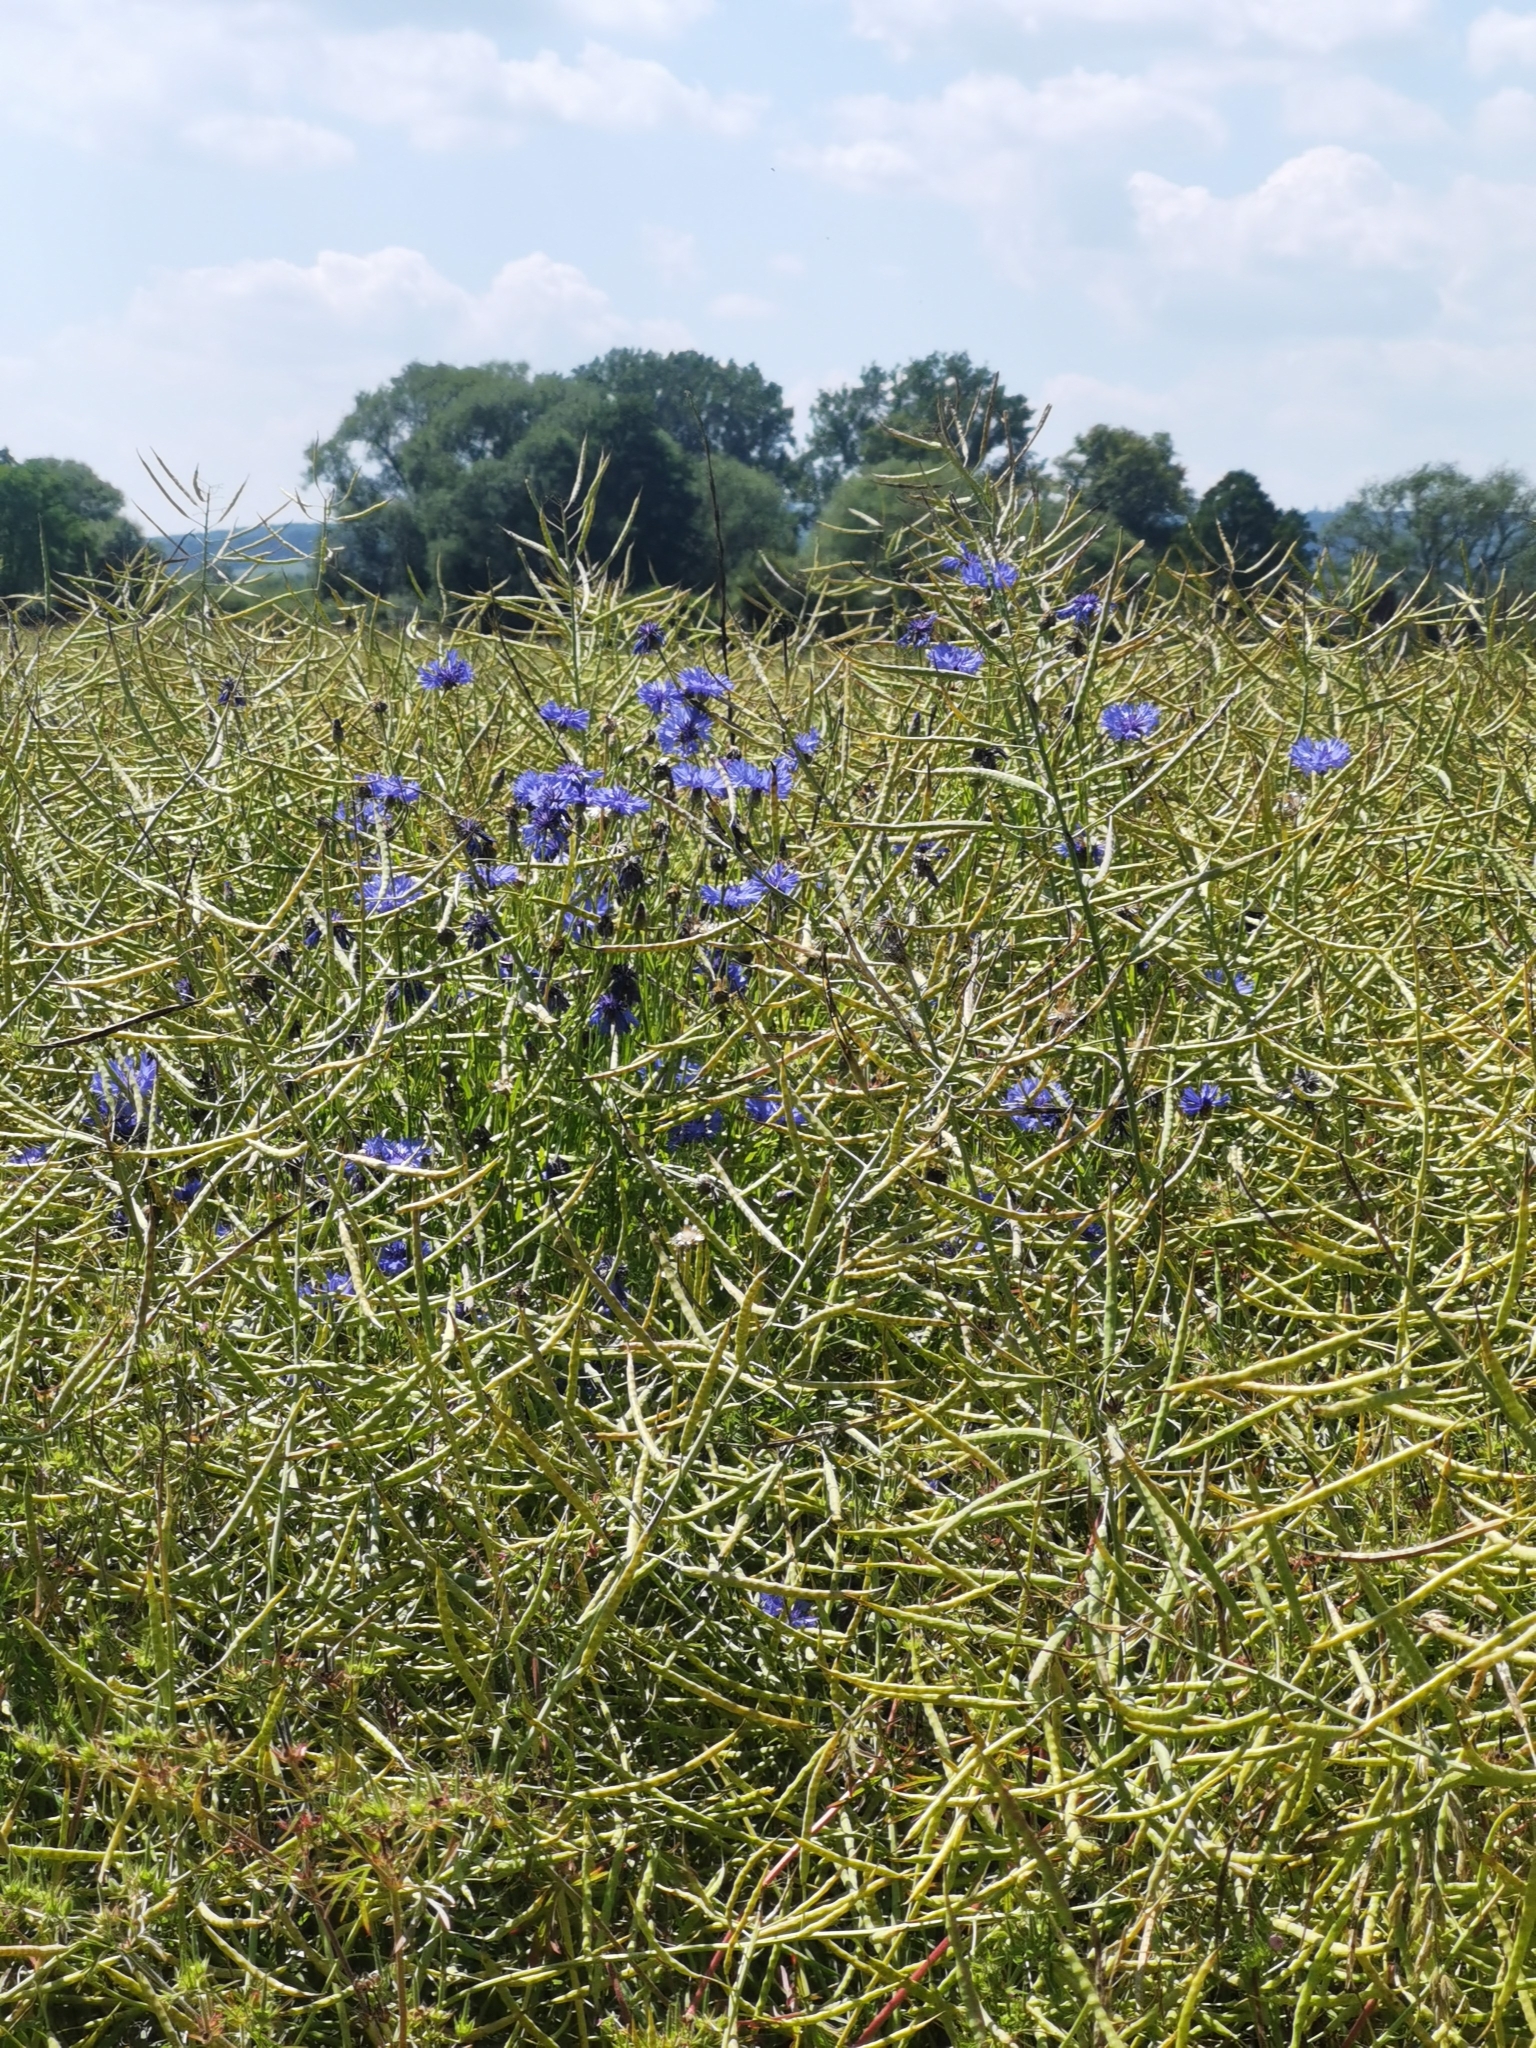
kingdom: Plantae
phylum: Tracheophyta
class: Magnoliopsida
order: Asterales
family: Asteraceae
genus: Centaurea
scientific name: Centaurea cyanus
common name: Cornflower
